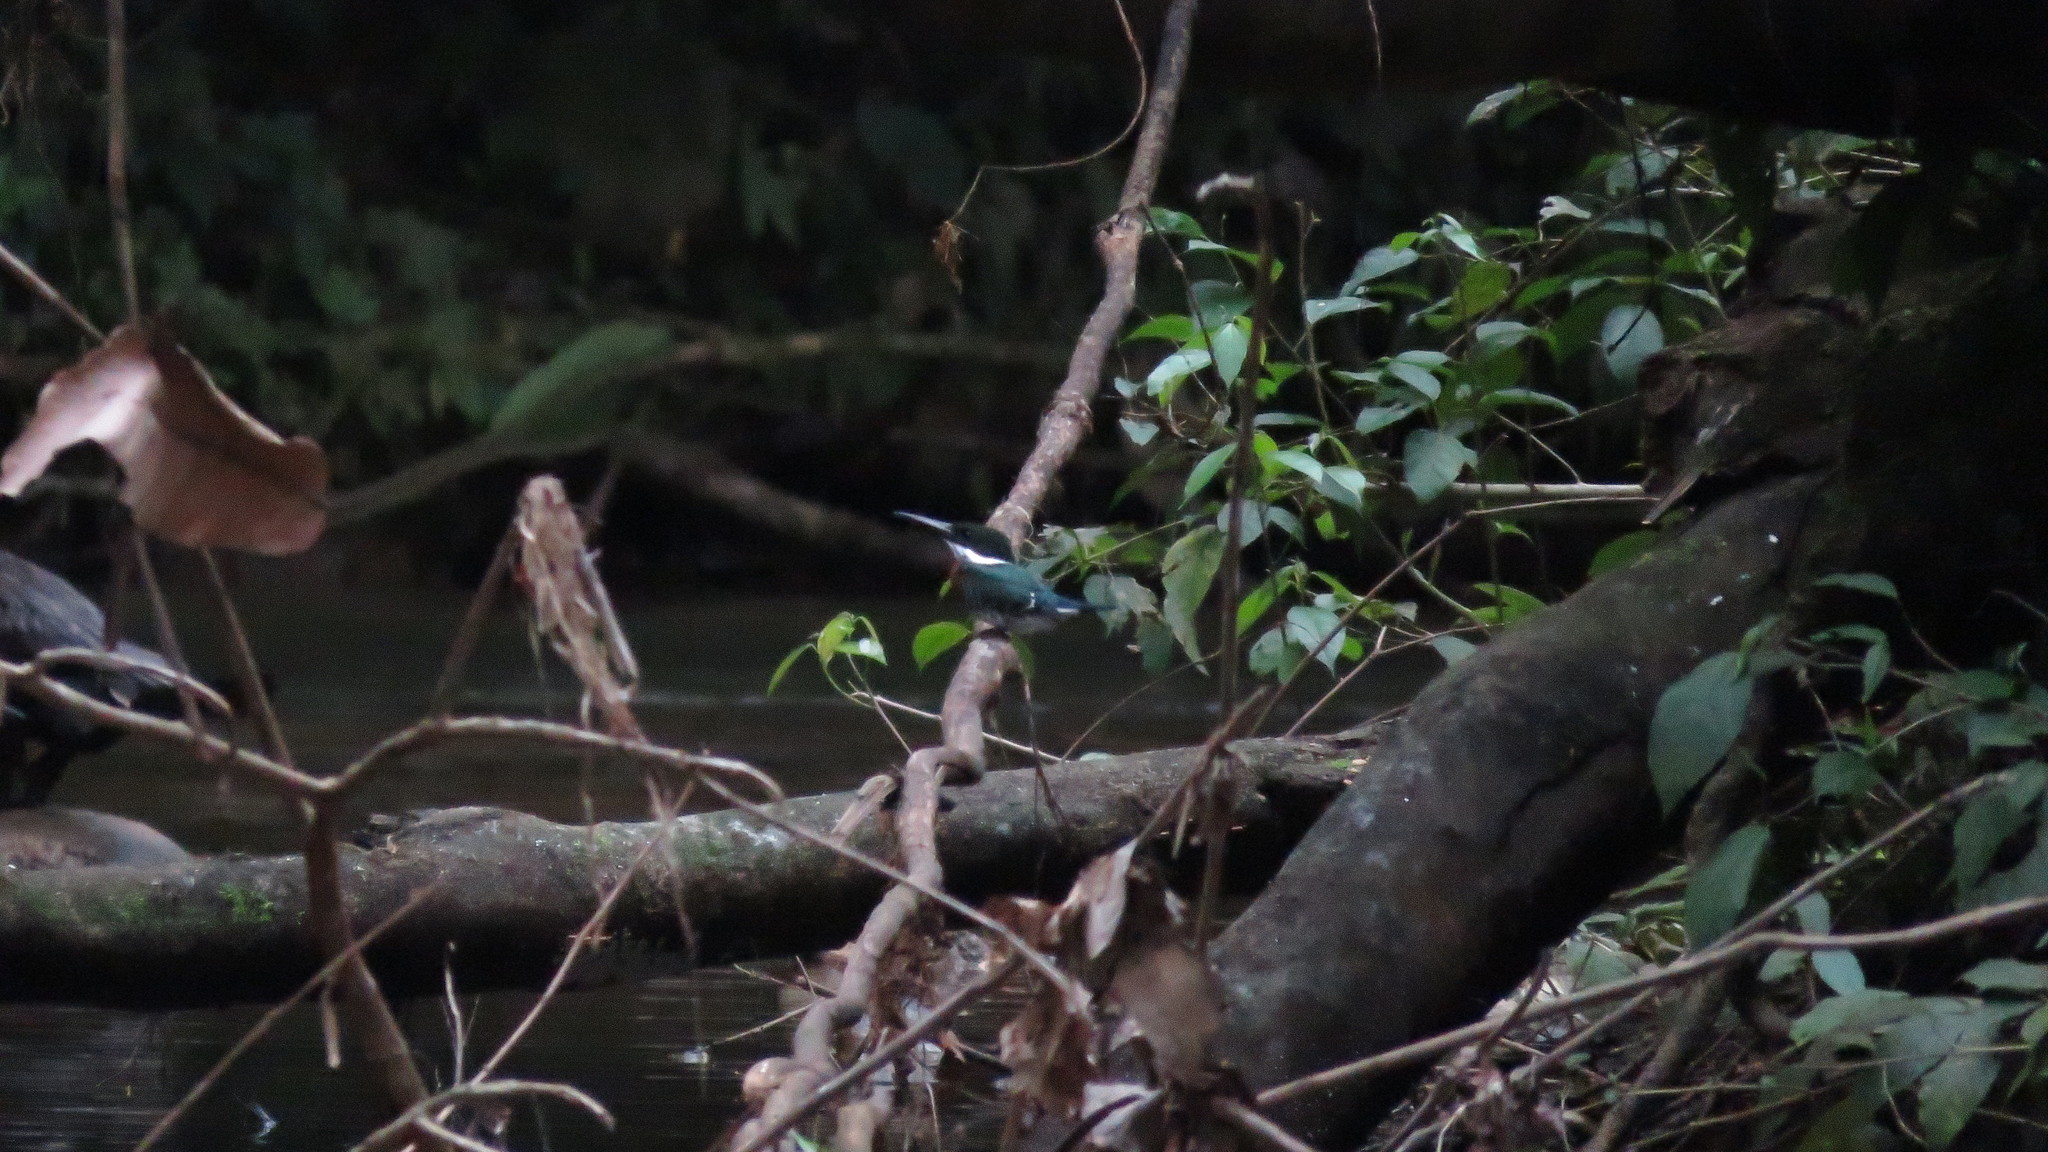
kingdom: Animalia
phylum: Chordata
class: Aves
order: Coraciiformes
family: Alcedinidae
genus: Chloroceryle
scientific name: Chloroceryle americana
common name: Green kingfisher
